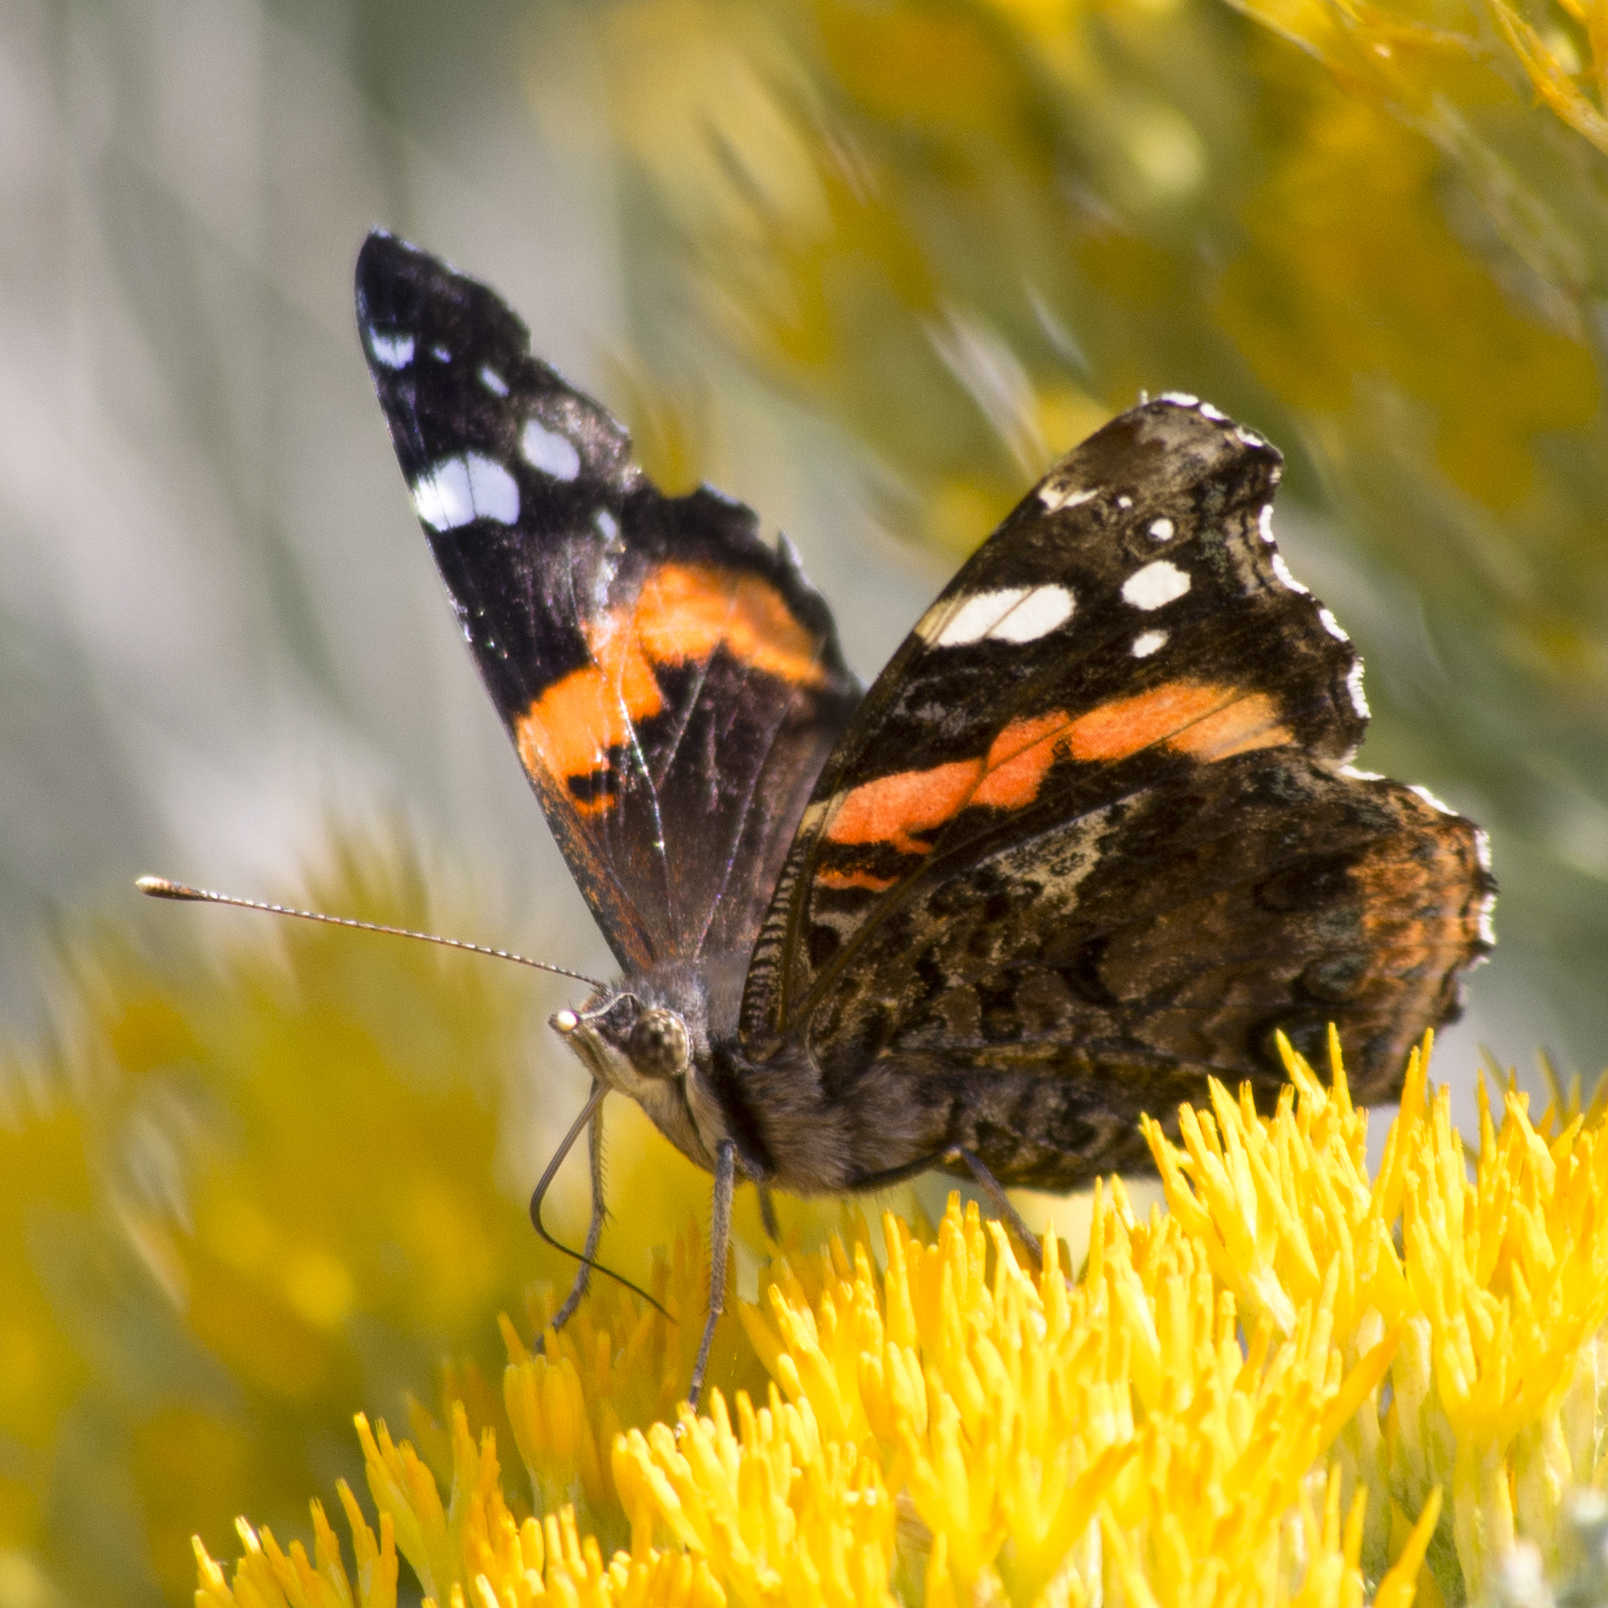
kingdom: Animalia
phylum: Arthropoda
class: Insecta
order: Lepidoptera
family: Nymphalidae
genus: Vanessa
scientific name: Vanessa atalanta
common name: Red admiral
